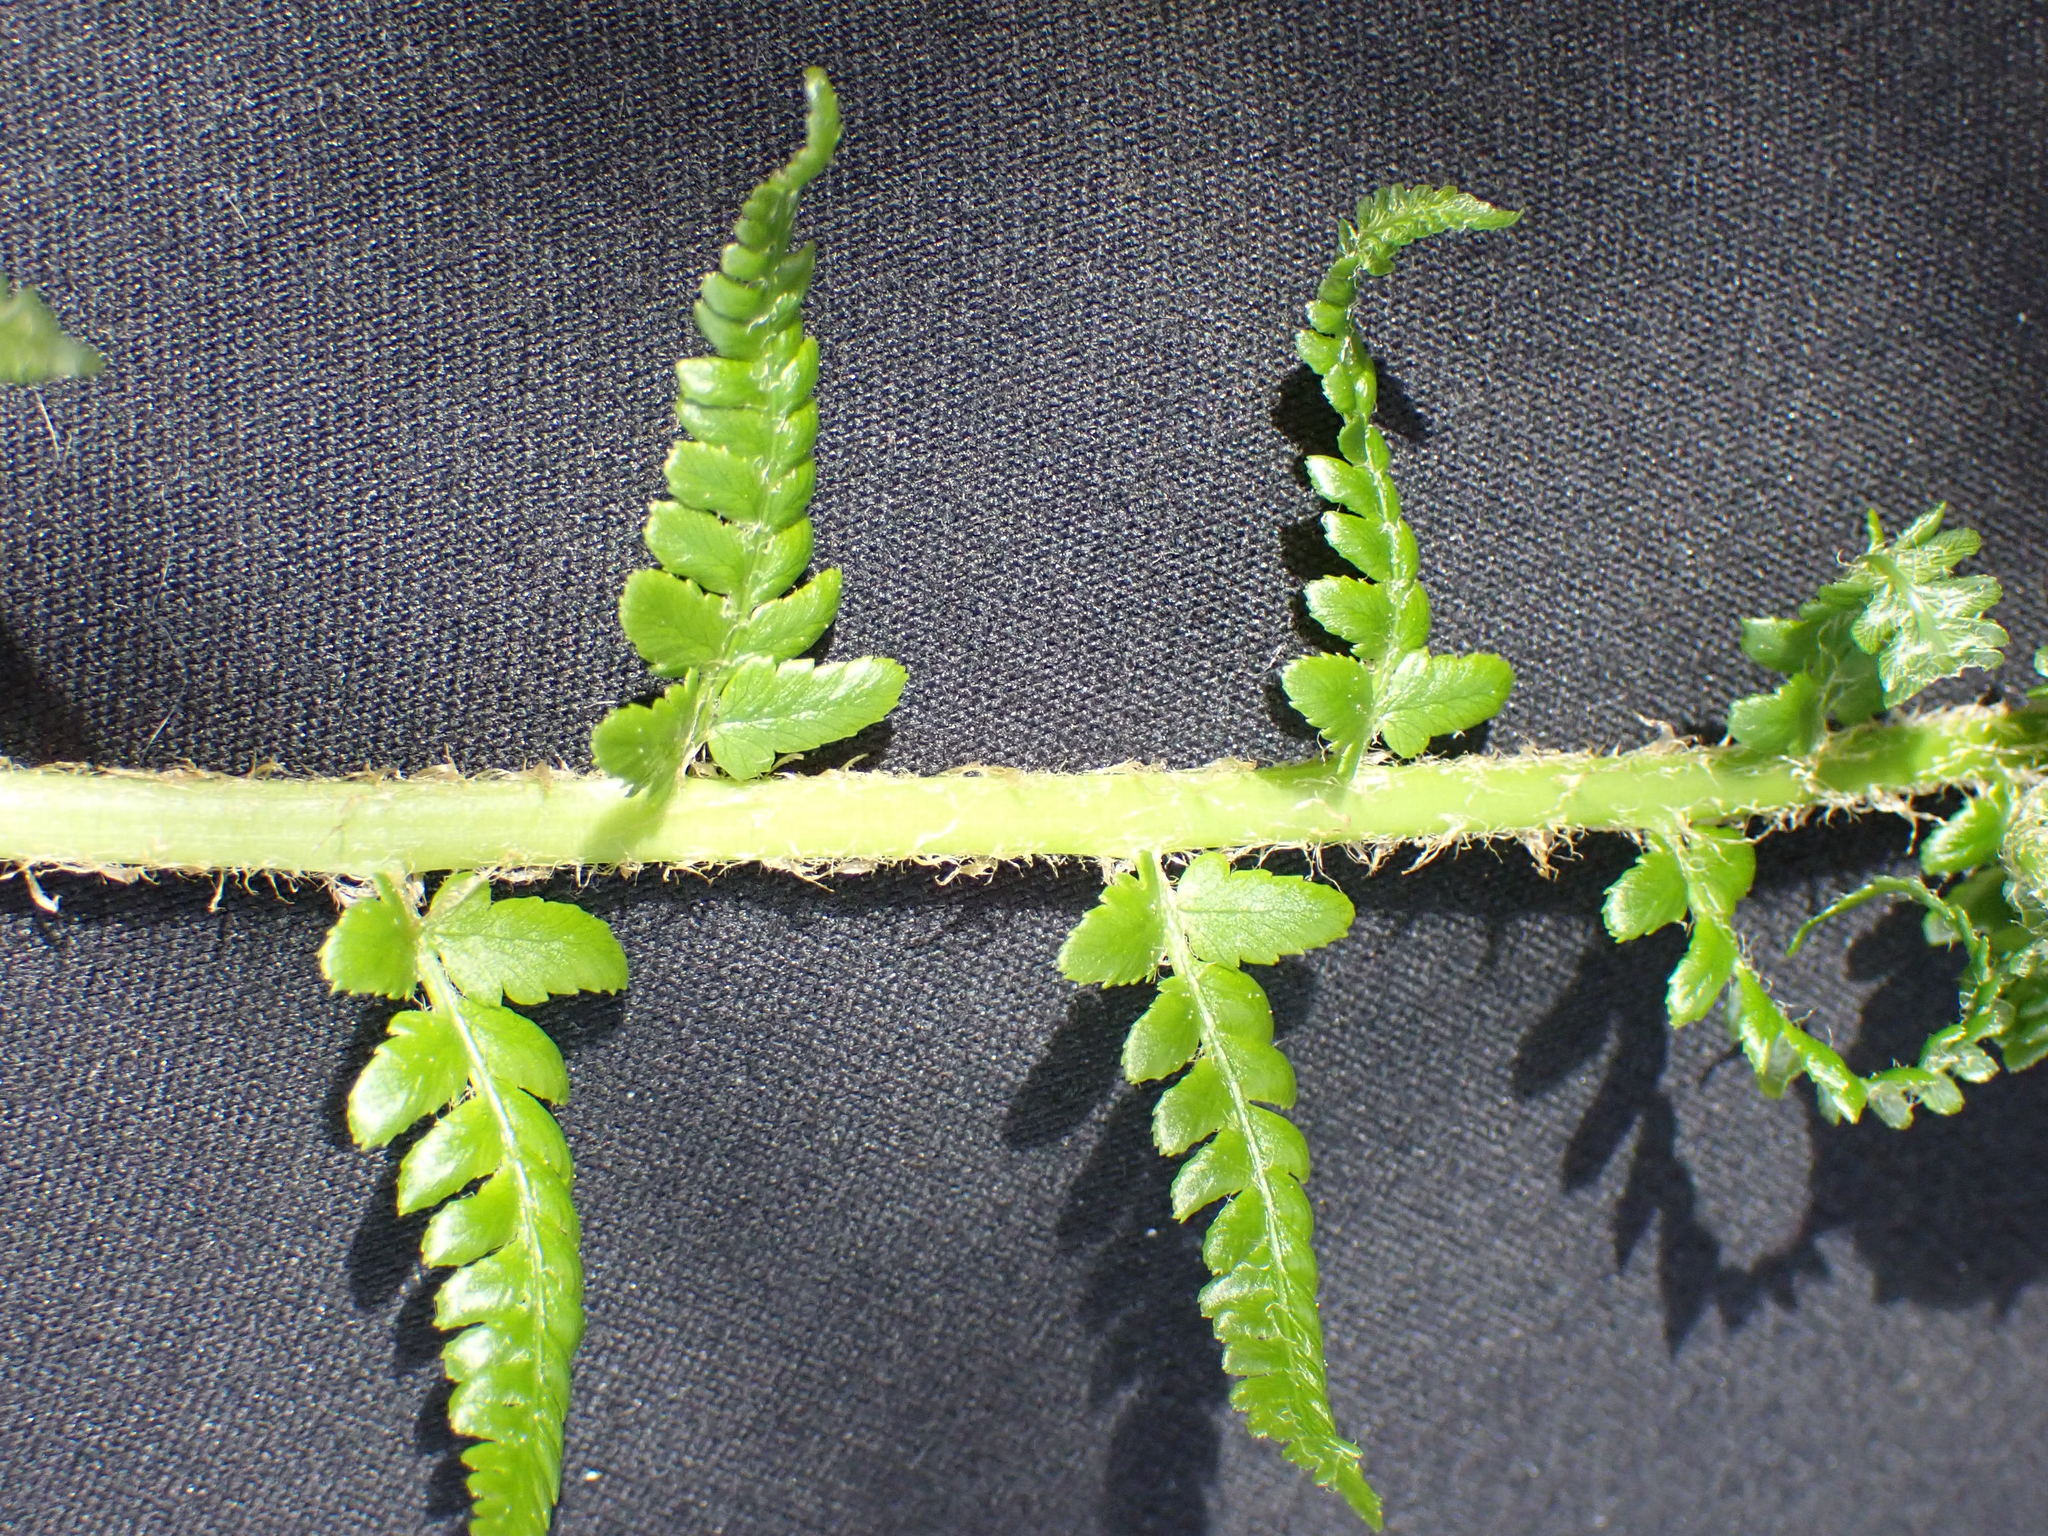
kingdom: Plantae
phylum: Tracheophyta
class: Polypodiopsida
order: Polypodiales
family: Dryopteridaceae
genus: Dryopteris
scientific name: Dryopteris filix-mas
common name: Male fern
